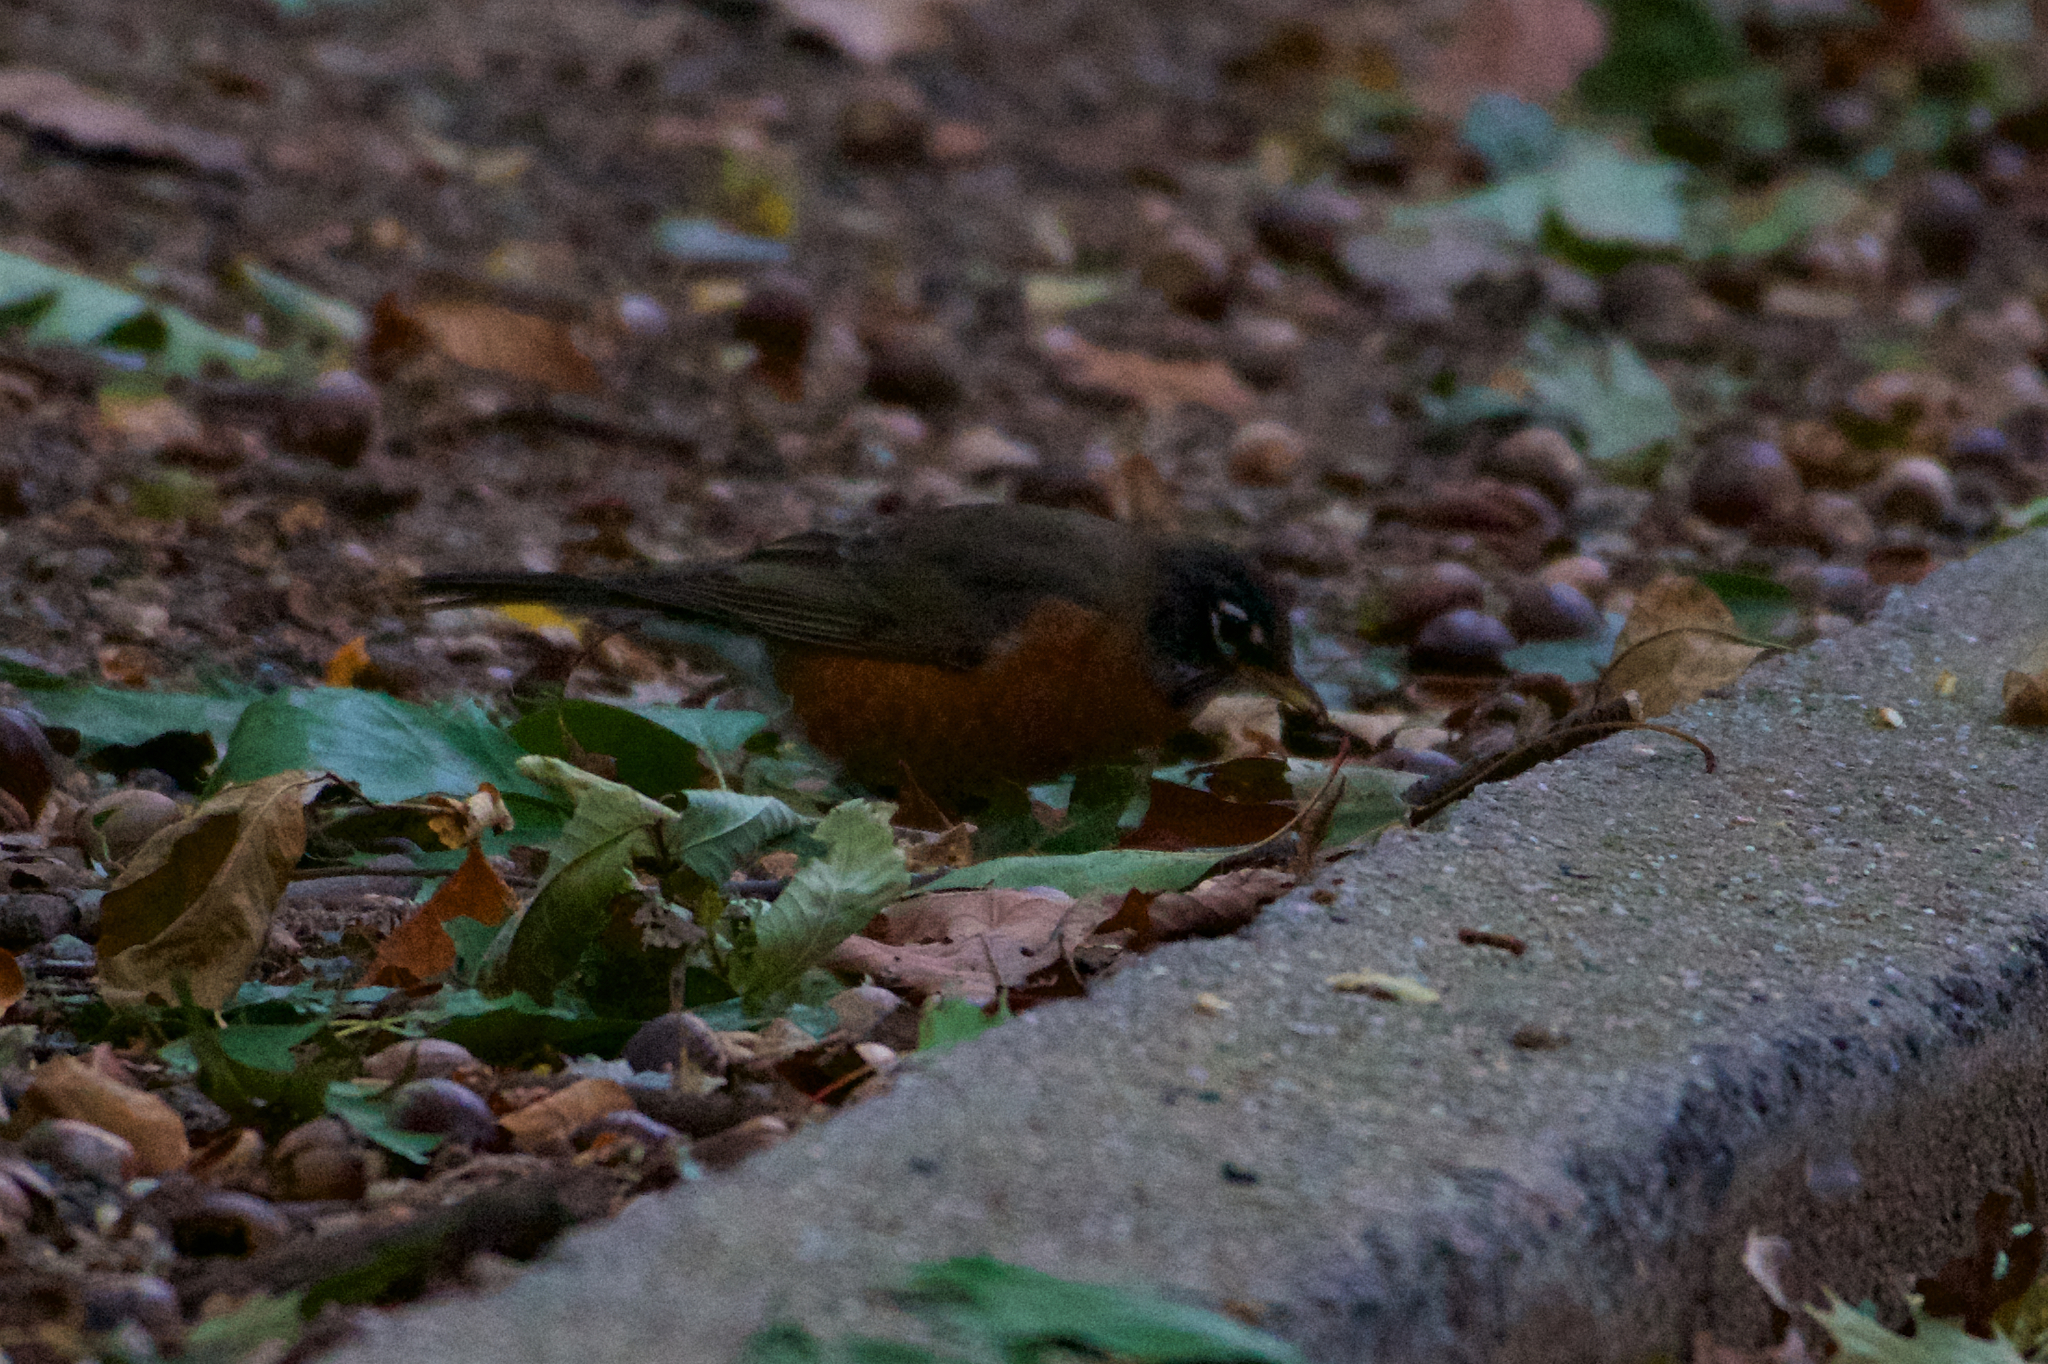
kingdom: Animalia
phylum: Chordata
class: Aves
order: Passeriformes
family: Turdidae
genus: Turdus
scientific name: Turdus migratorius
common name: American robin
